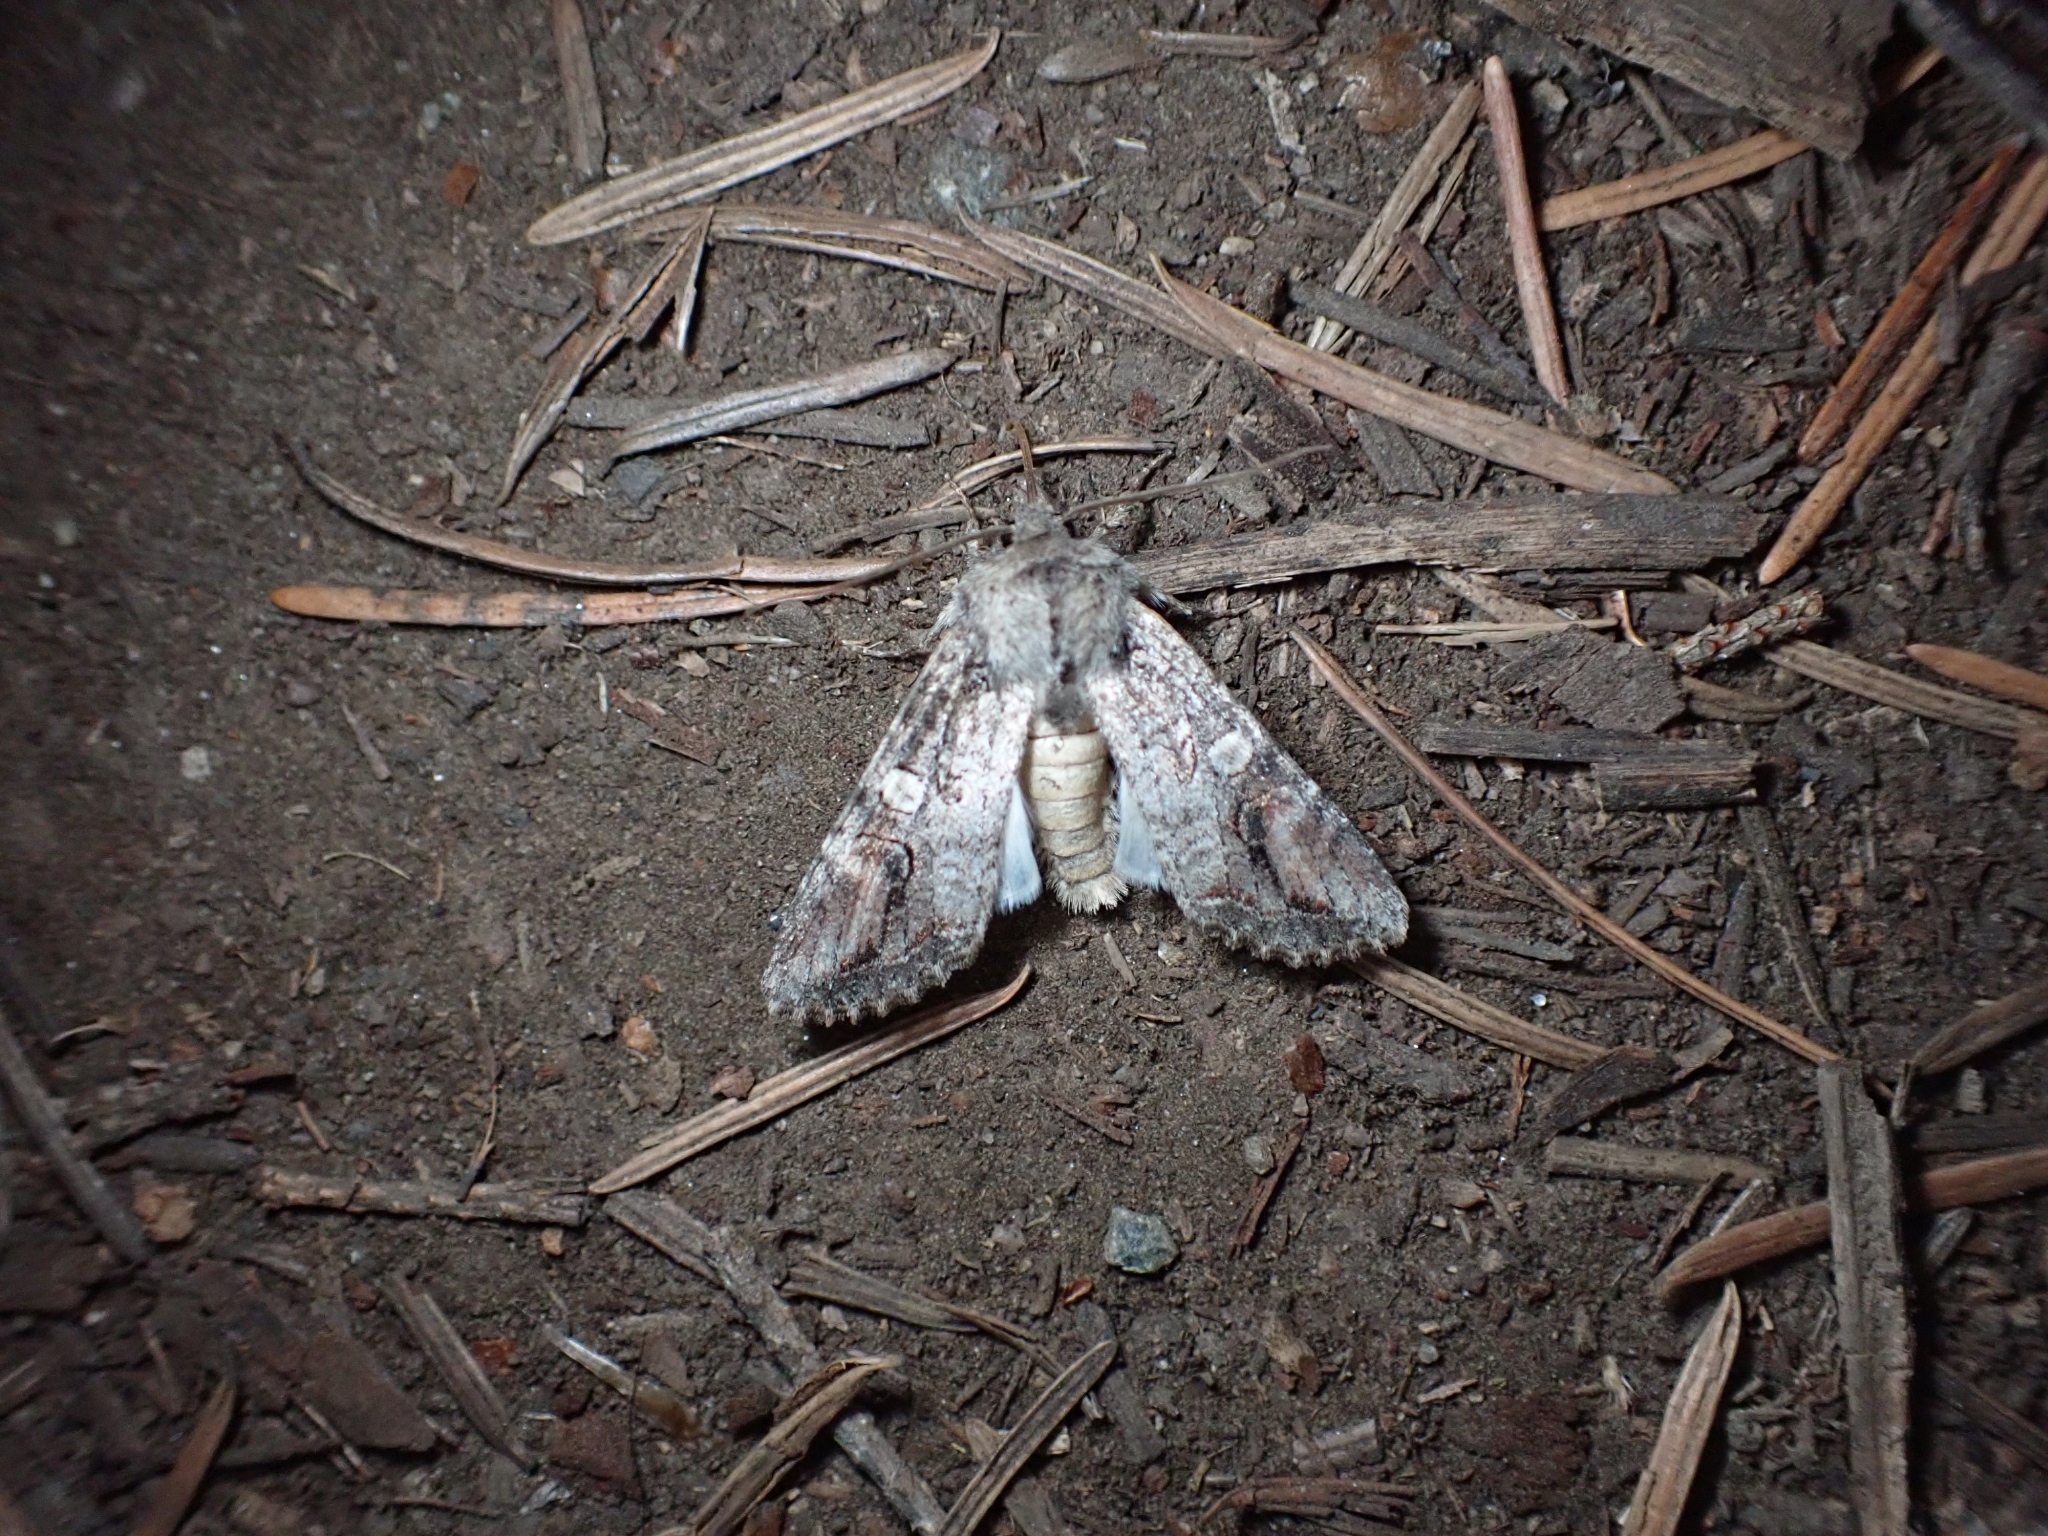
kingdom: Animalia
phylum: Arthropoda
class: Insecta
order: Lepidoptera
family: Noctuidae
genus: Egira
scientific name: Egira perlubens
